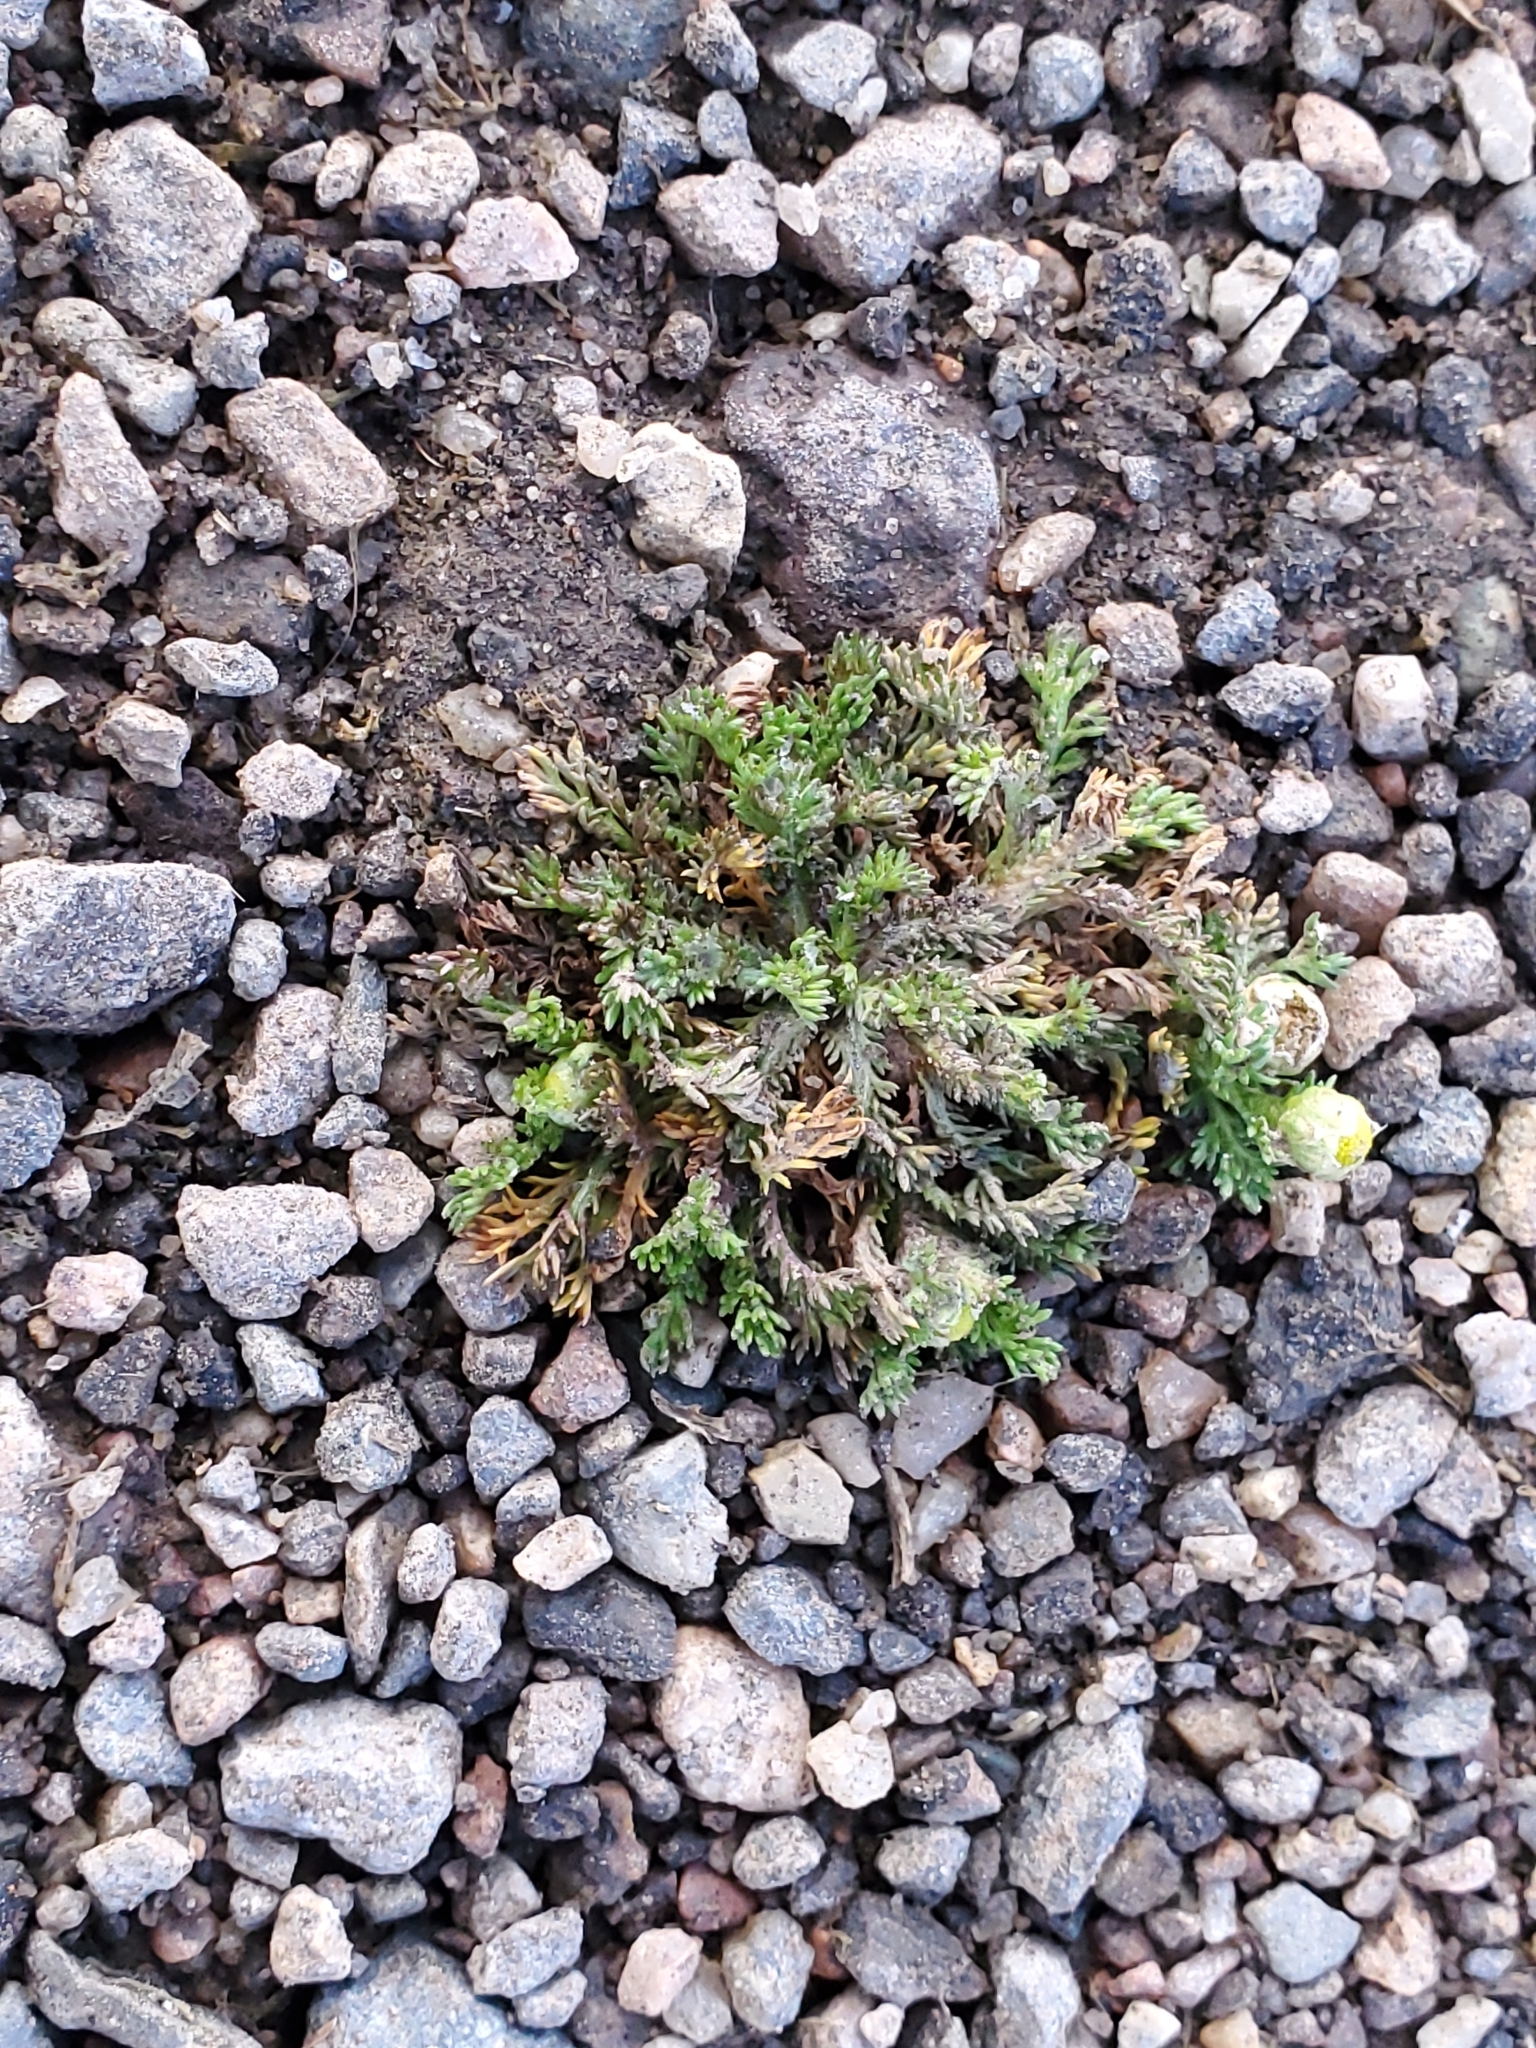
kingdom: Plantae
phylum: Tracheophyta
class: Magnoliopsida
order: Asterales
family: Asteraceae
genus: Matricaria
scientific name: Matricaria discoidea
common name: Disc mayweed
